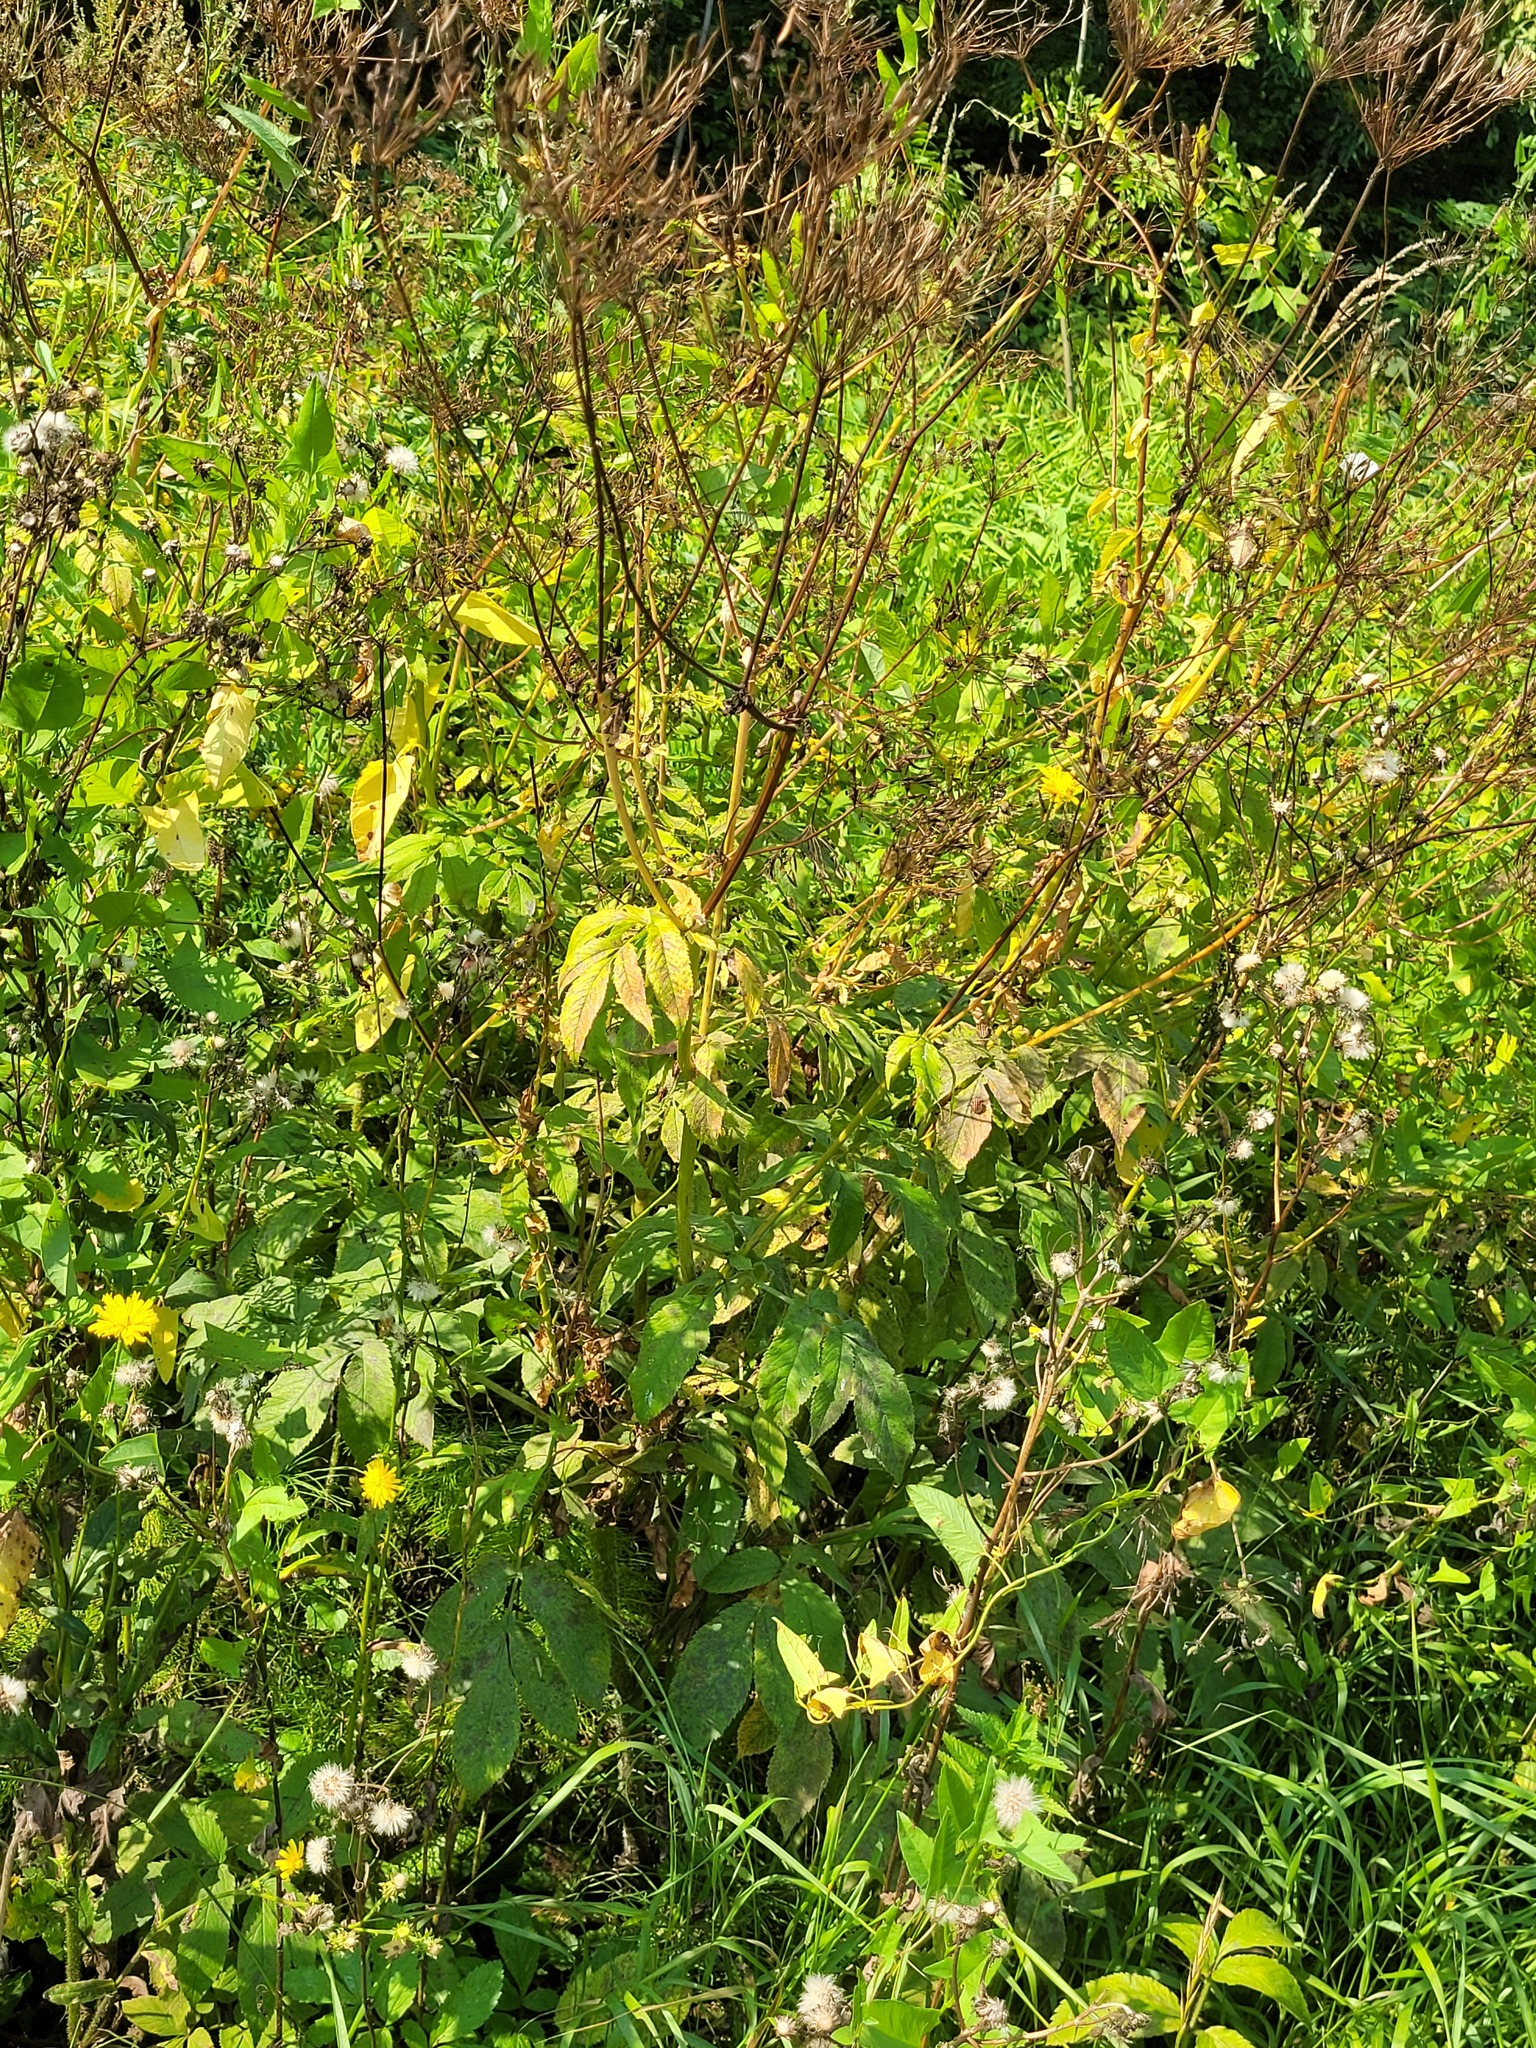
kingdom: Plantae
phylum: Tracheophyta
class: Magnoliopsida
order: Apiales
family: Apiaceae
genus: Chaerophyllum
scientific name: Chaerophyllum aromaticum
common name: Broadleaf chervil
